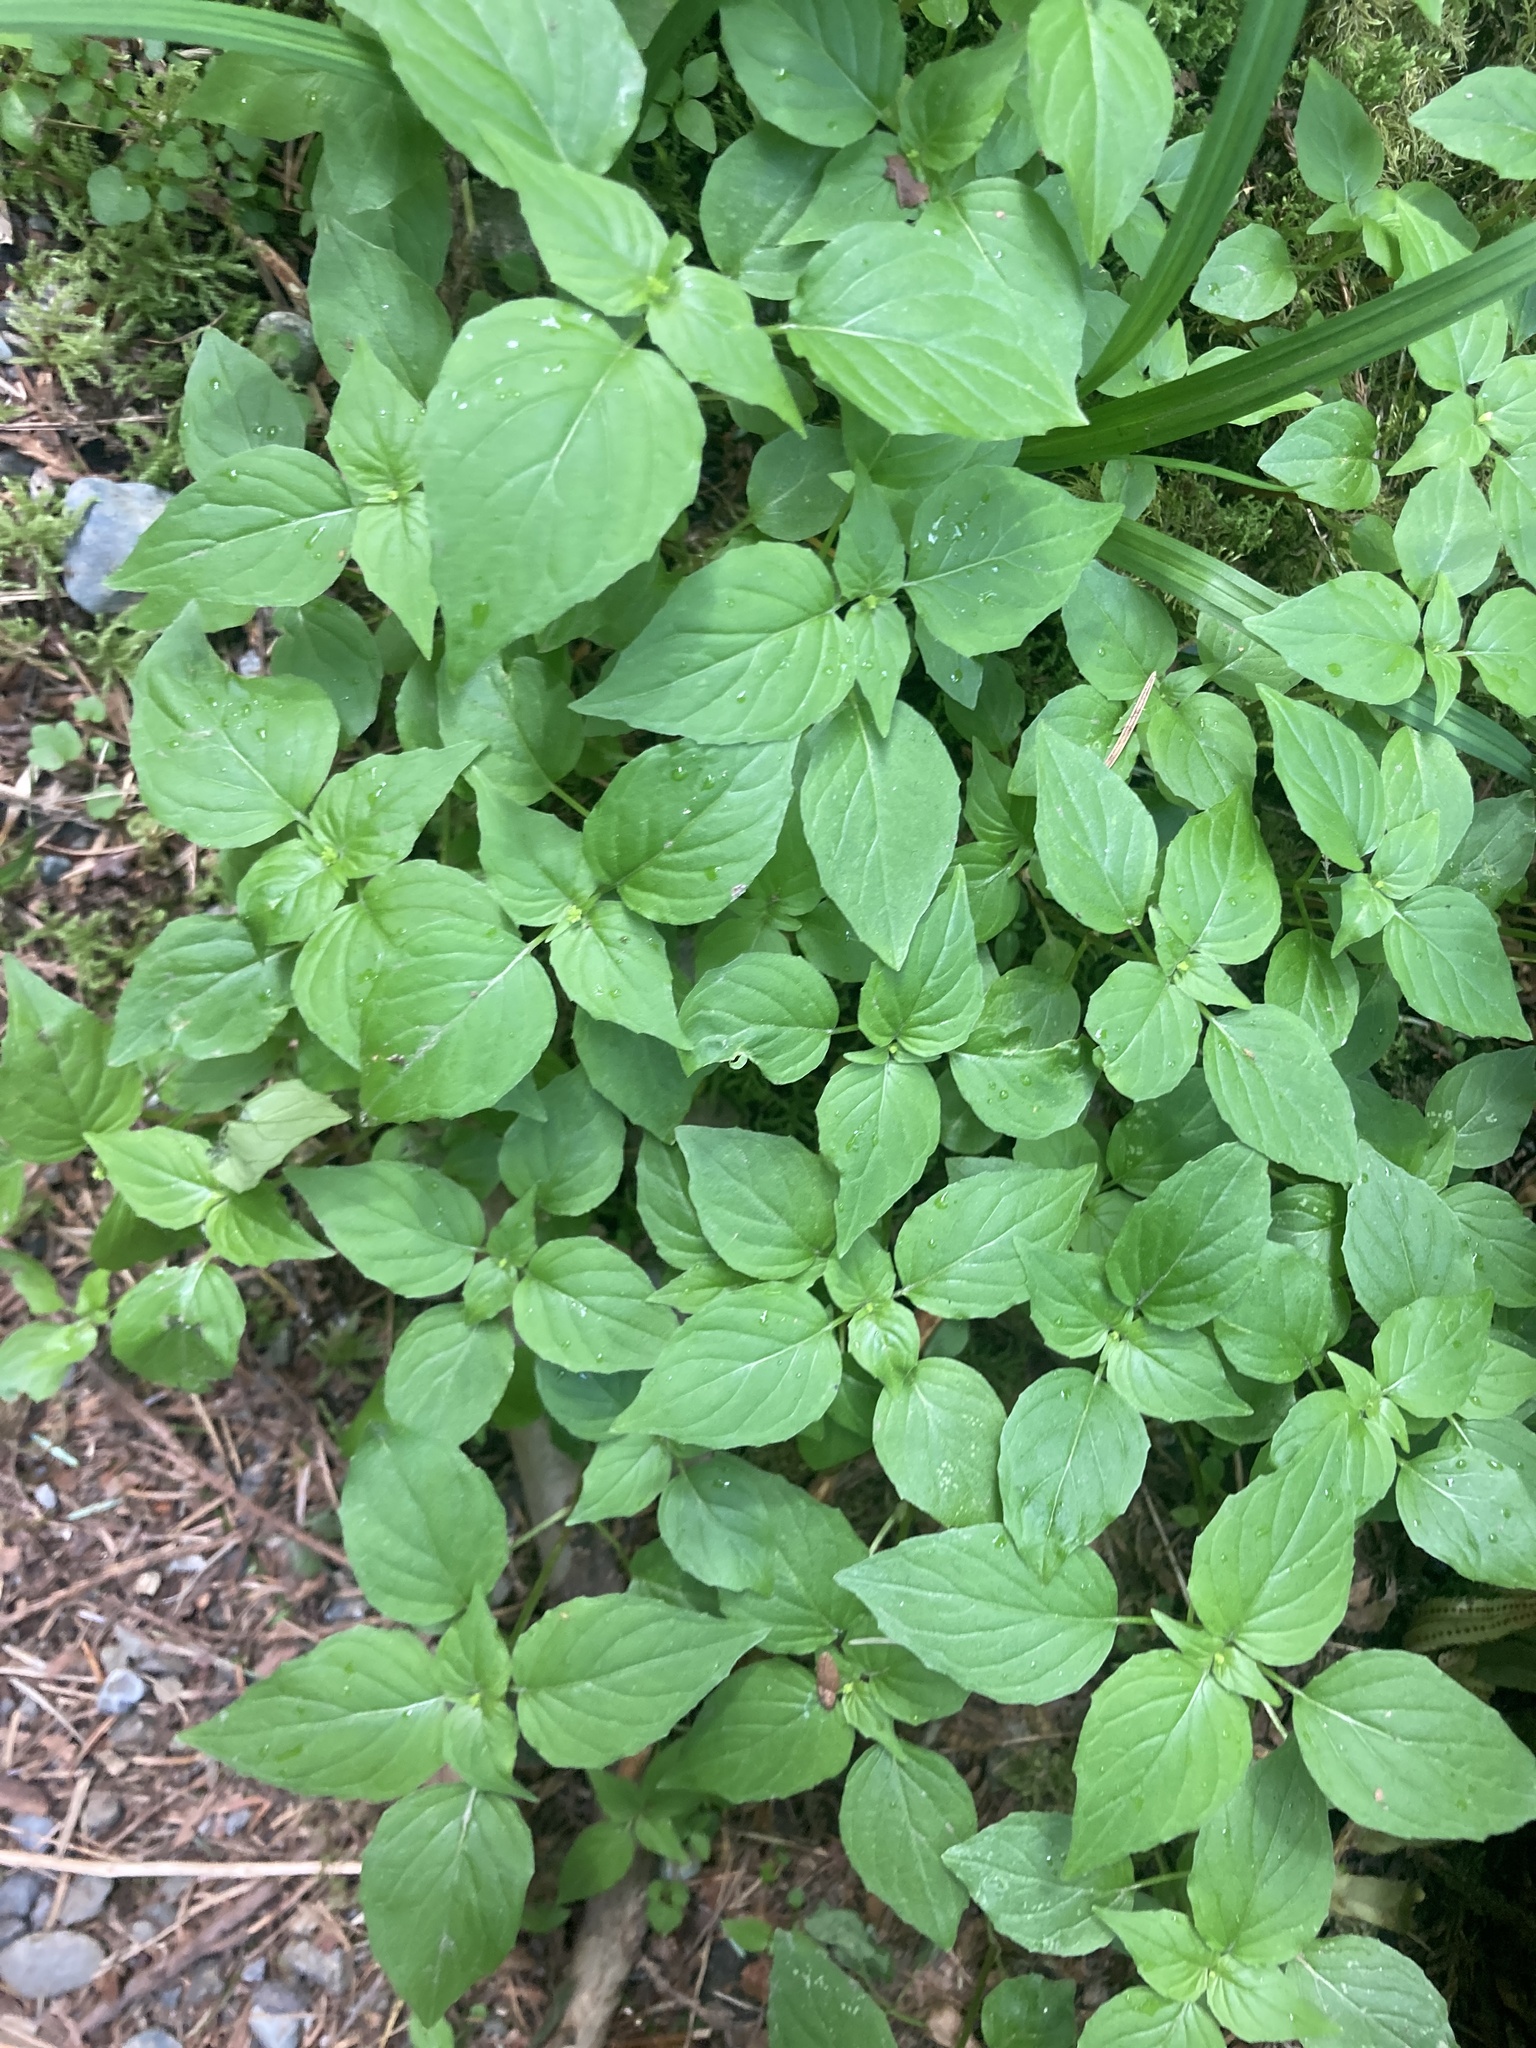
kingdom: Plantae
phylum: Tracheophyta
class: Magnoliopsida
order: Myrtales
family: Onagraceae
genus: Circaea
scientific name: Circaea alpina
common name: Alpine enchanter's-nightshade
